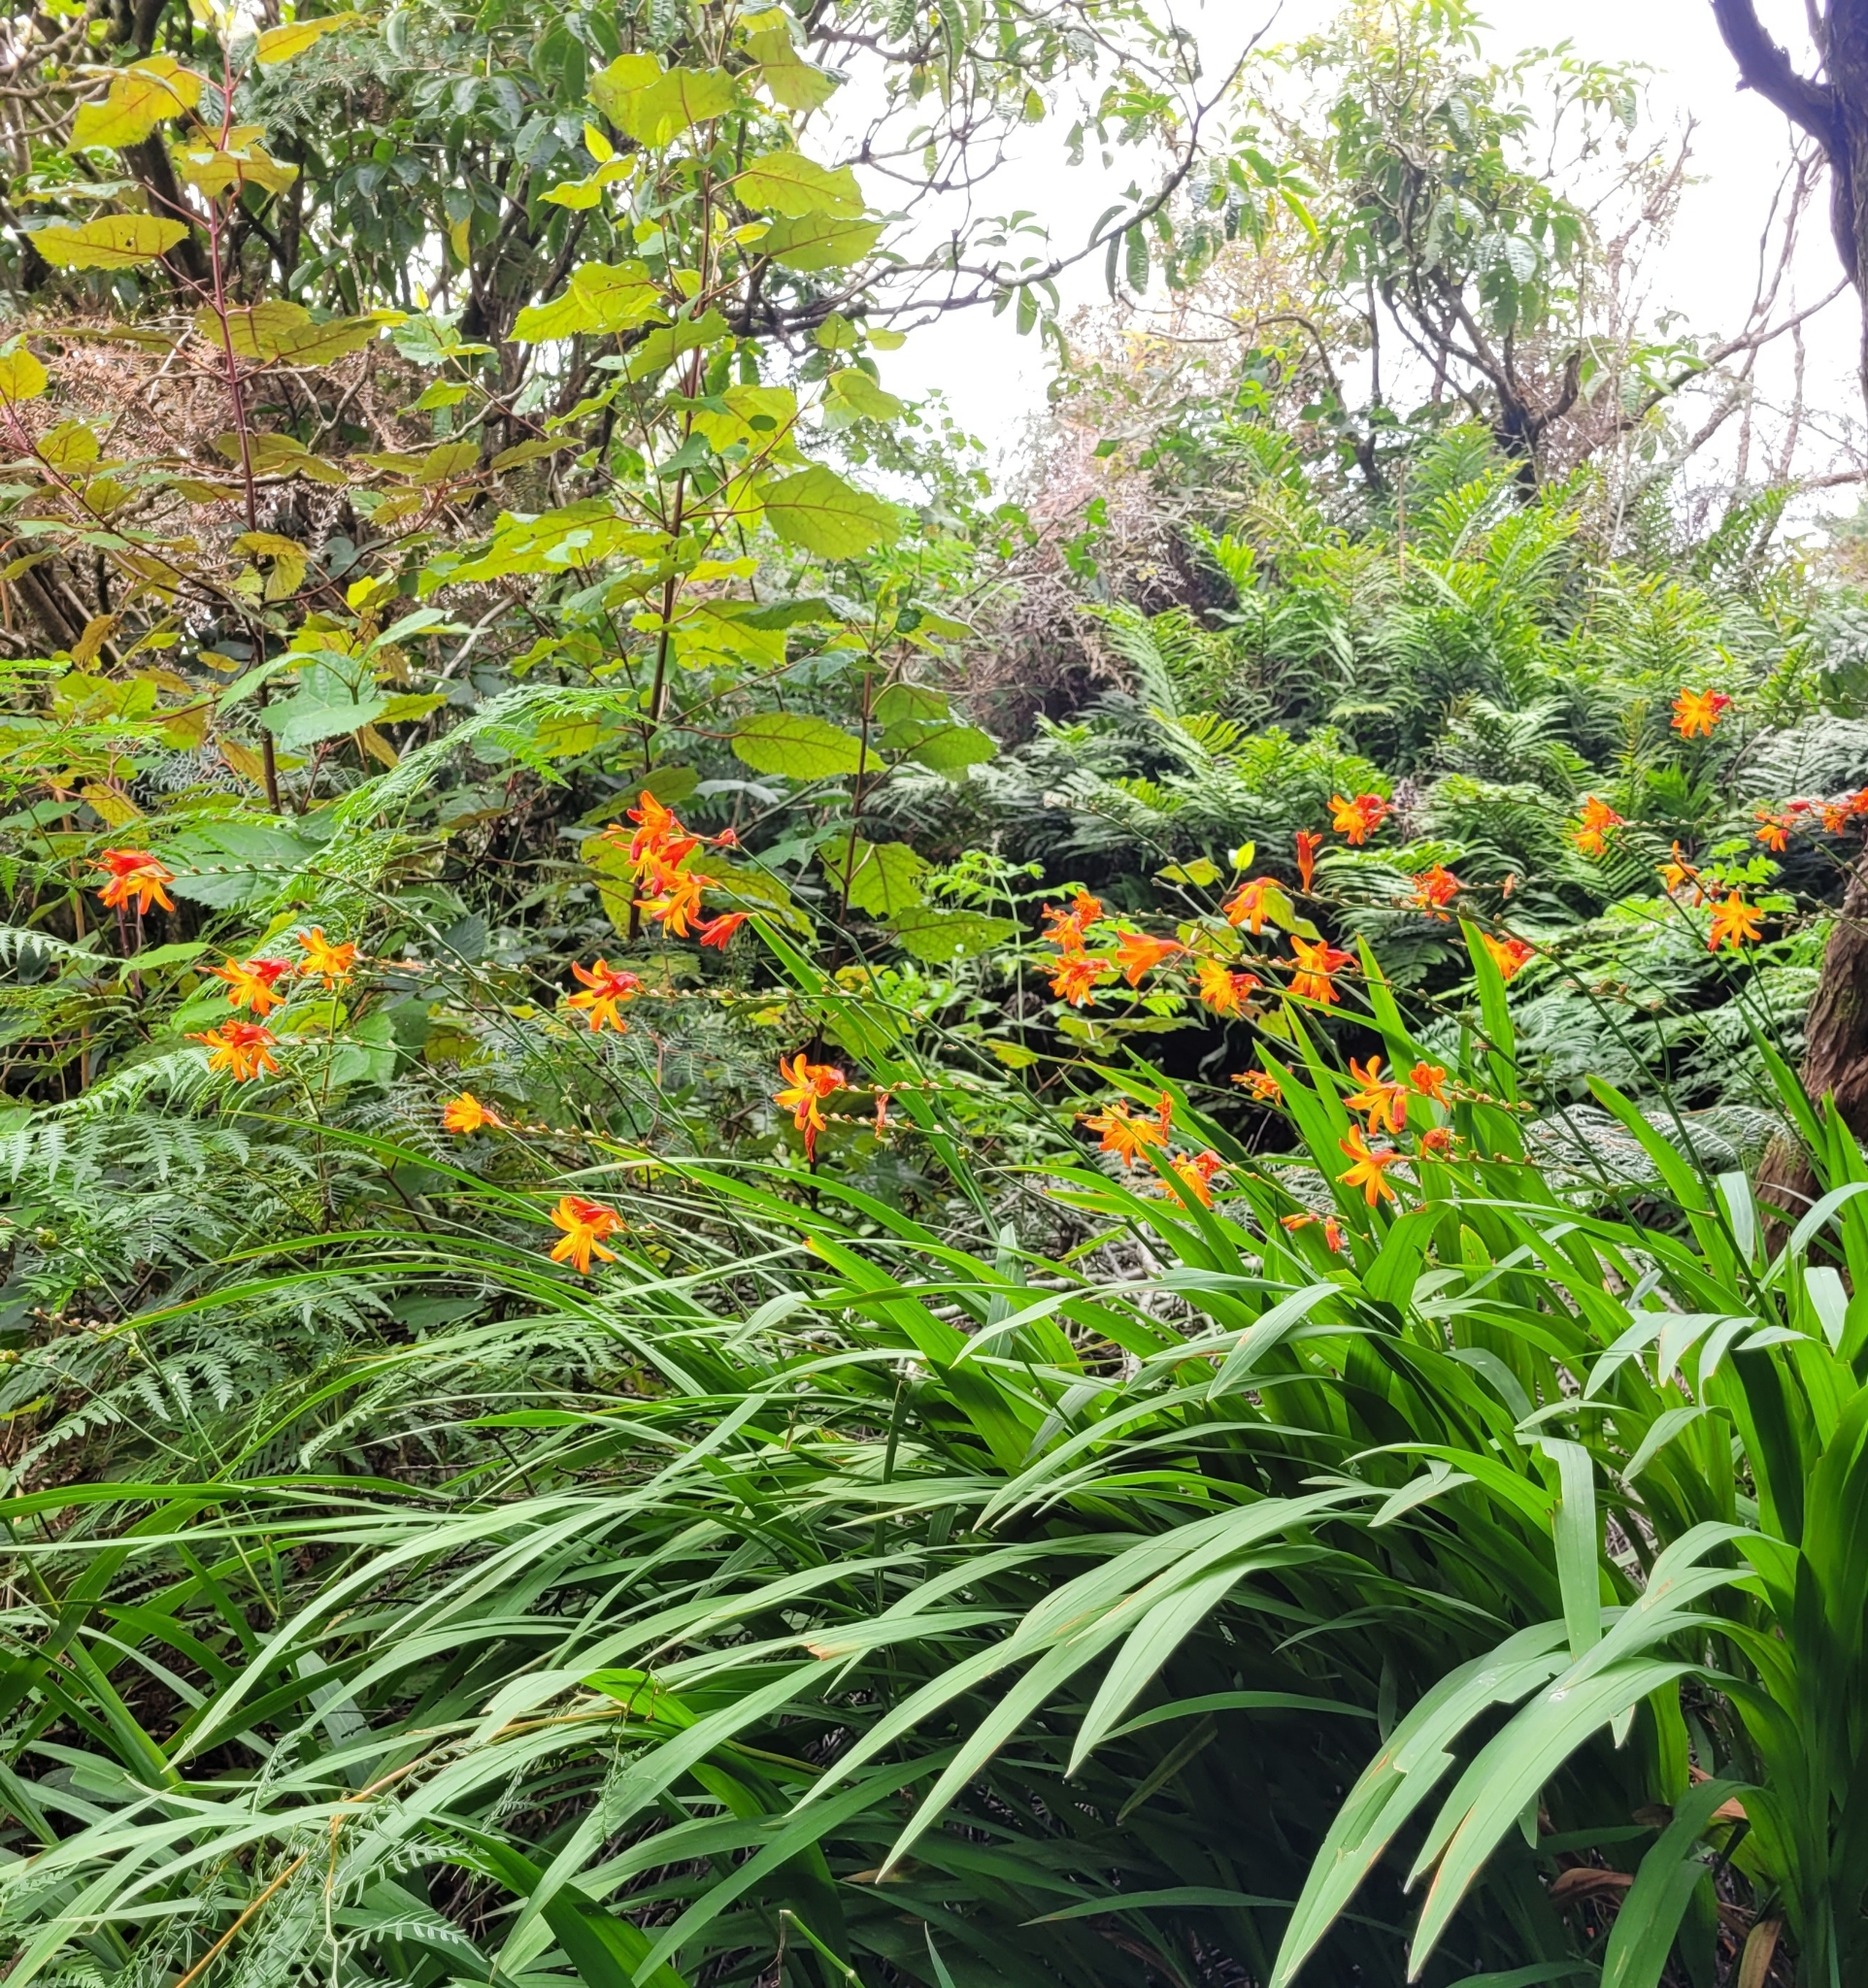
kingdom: Plantae
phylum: Tracheophyta
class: Liliopsida
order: Asparagales
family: Iridaceae
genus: Crocosmia
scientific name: Crocosmia crocosmiiflora
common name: Montbretia
